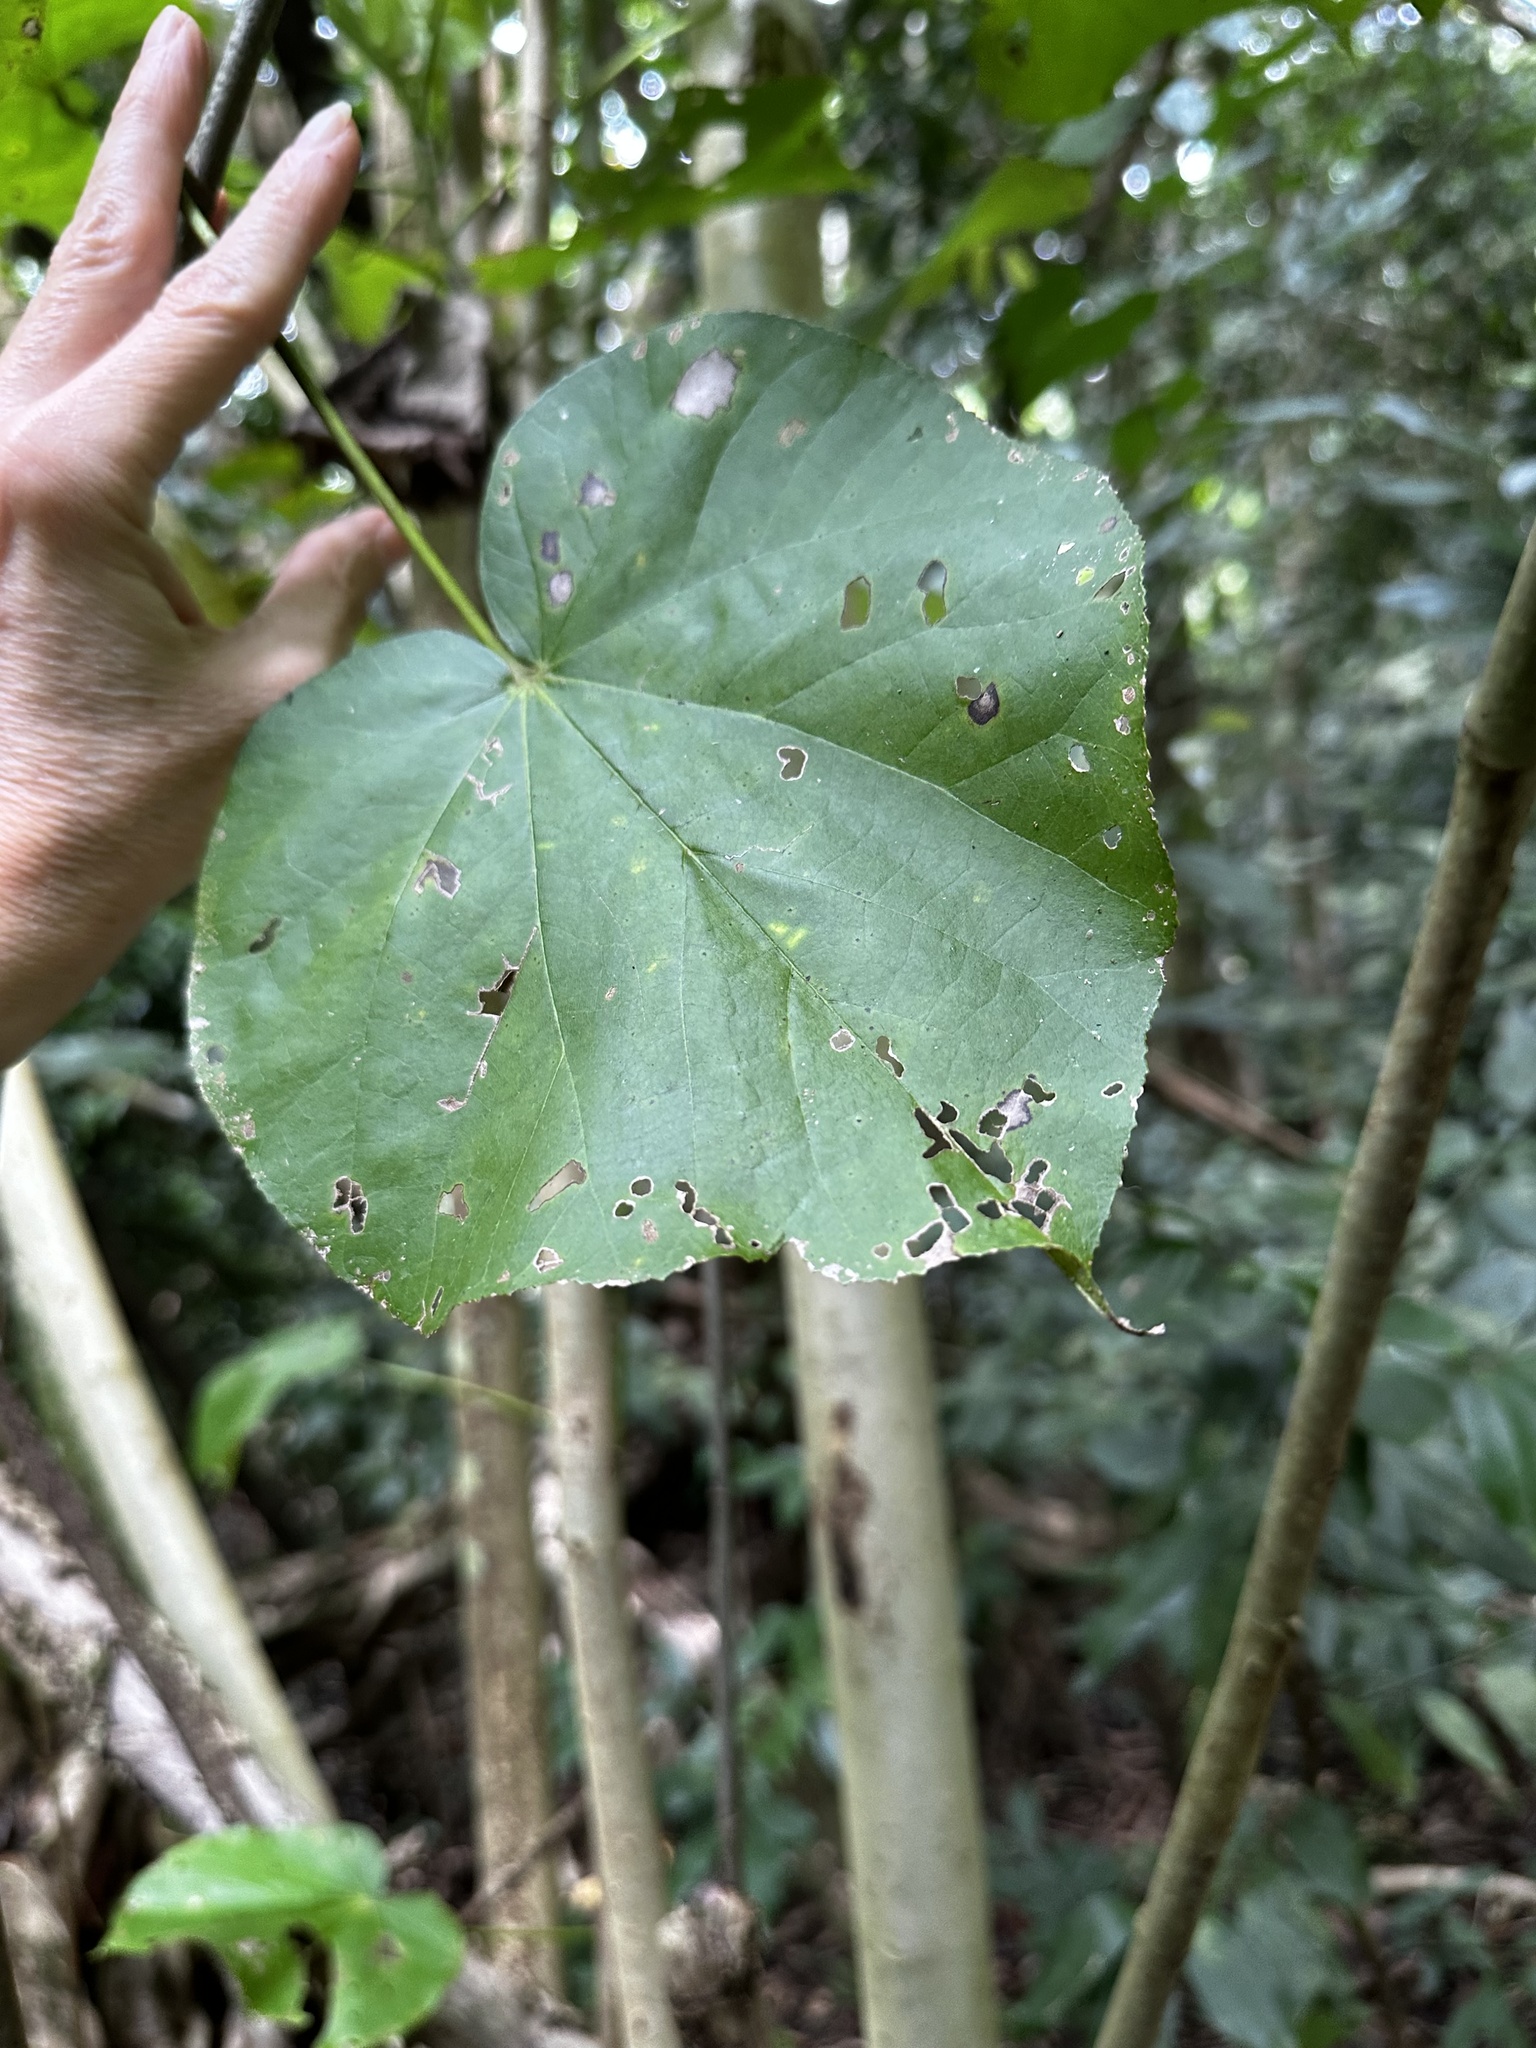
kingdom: Plantae
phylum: Tracheophyta
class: Magnoliopsida
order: Malvales
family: Malvaceae
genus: Talipariti
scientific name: Talipariti tiliaceum
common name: Sea hibiscus
